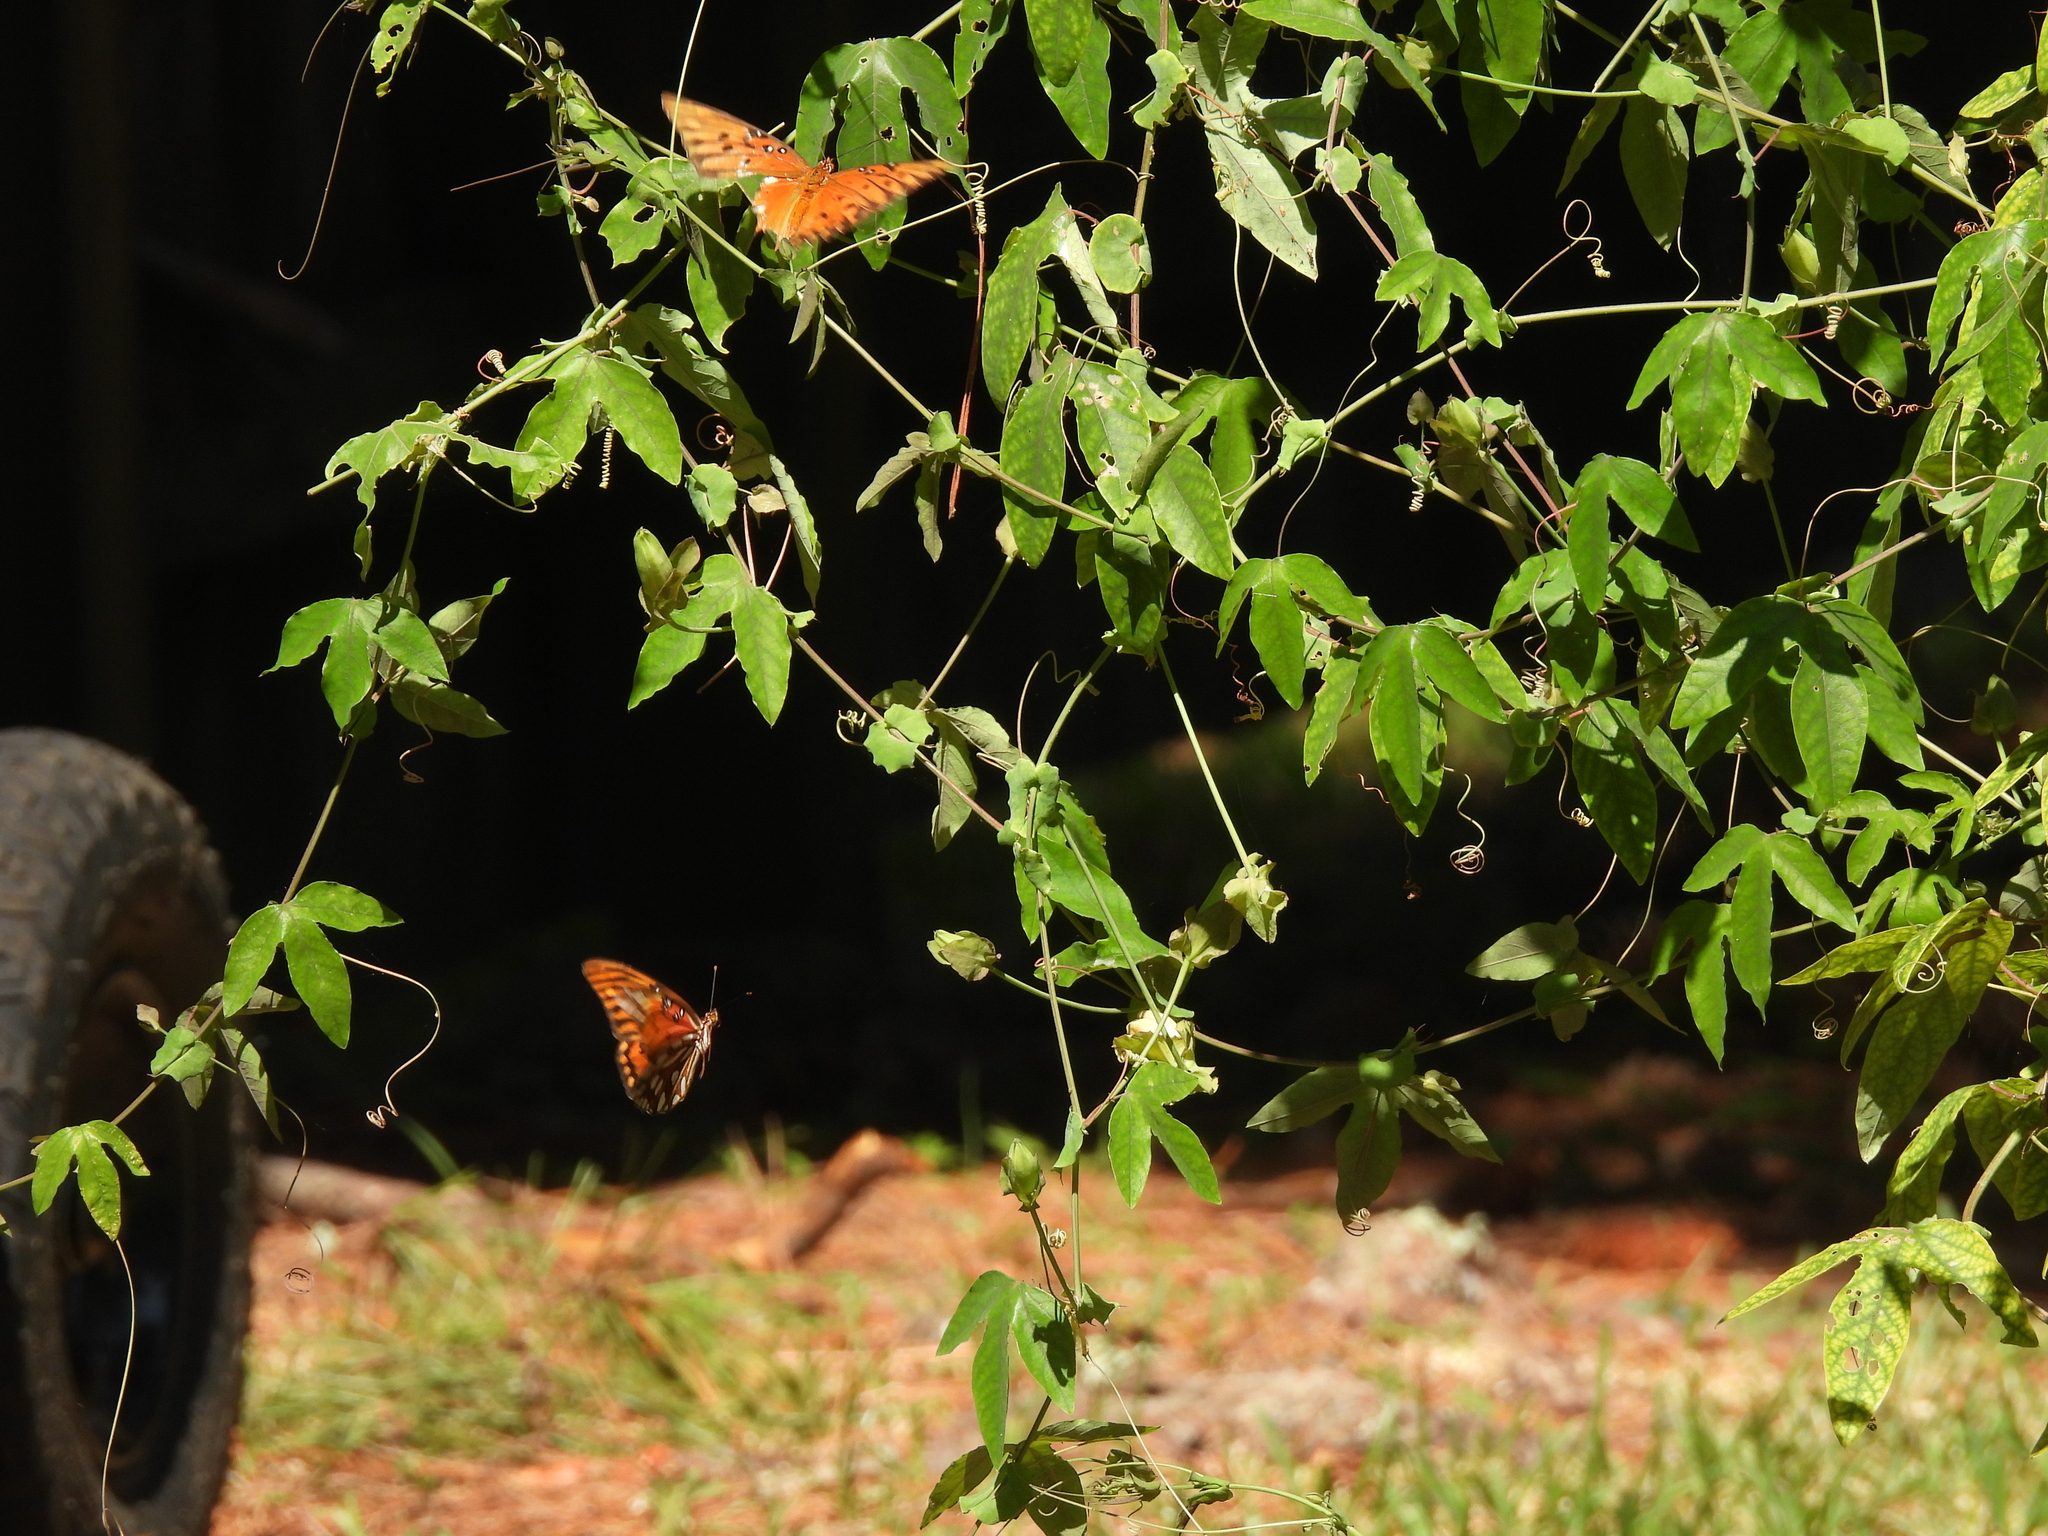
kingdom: Animalia
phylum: Arthropoda
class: Insecta
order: Lepidoptera
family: Nymphalidae
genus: Dione
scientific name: Dione vanillae
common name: Gulf fritillary
